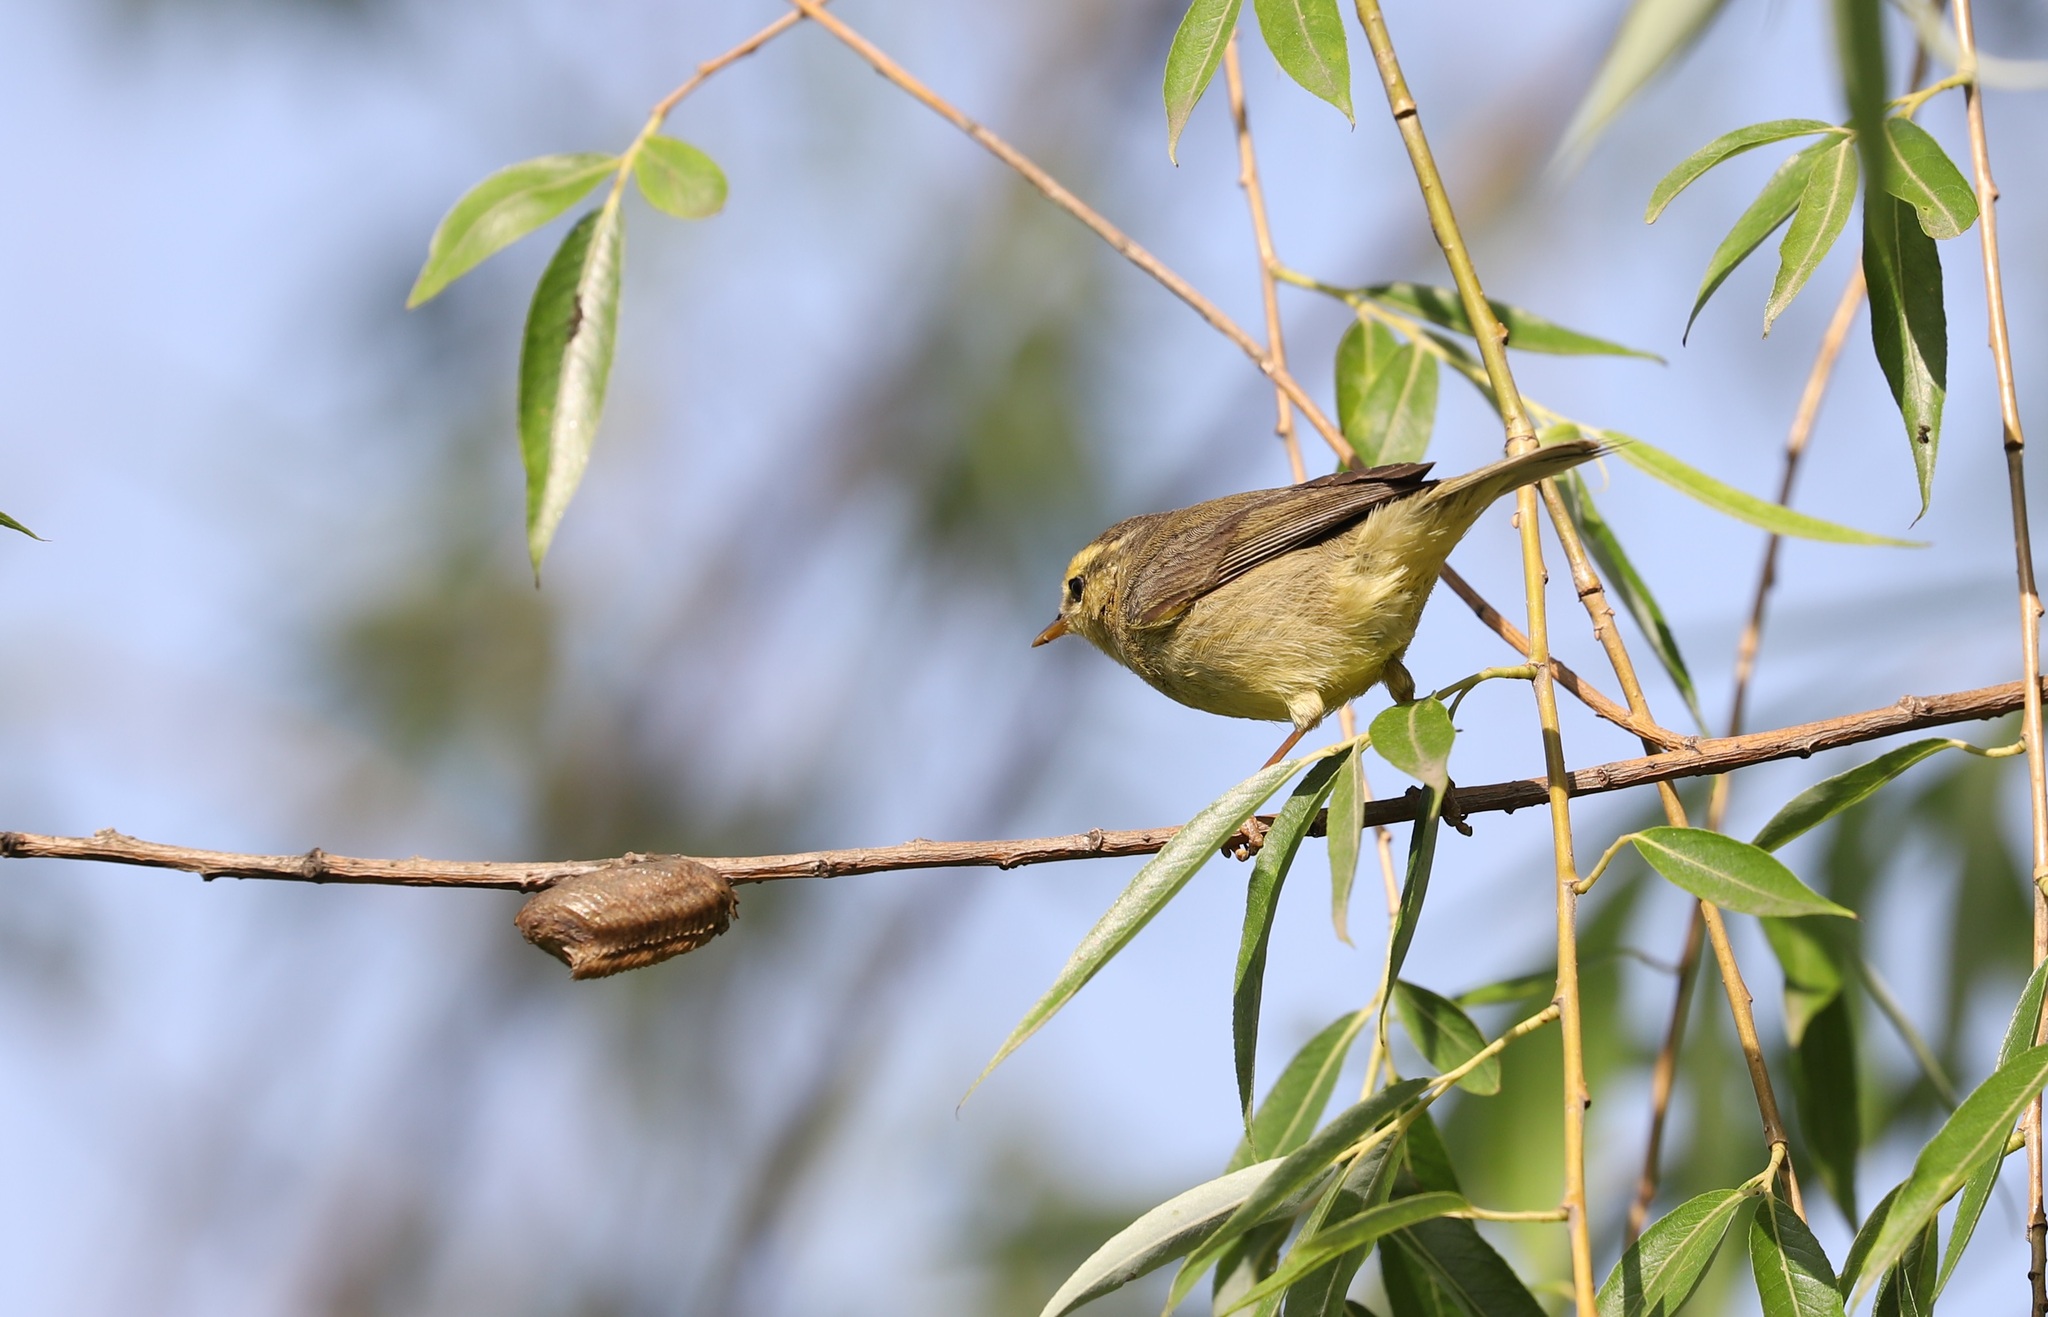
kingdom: Animalia
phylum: Chordata
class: Aves
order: Passeriformes
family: Phylloscopidae
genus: Phylloscopus
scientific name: Phylloscopus affinis
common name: Tickell's leaf warbler
